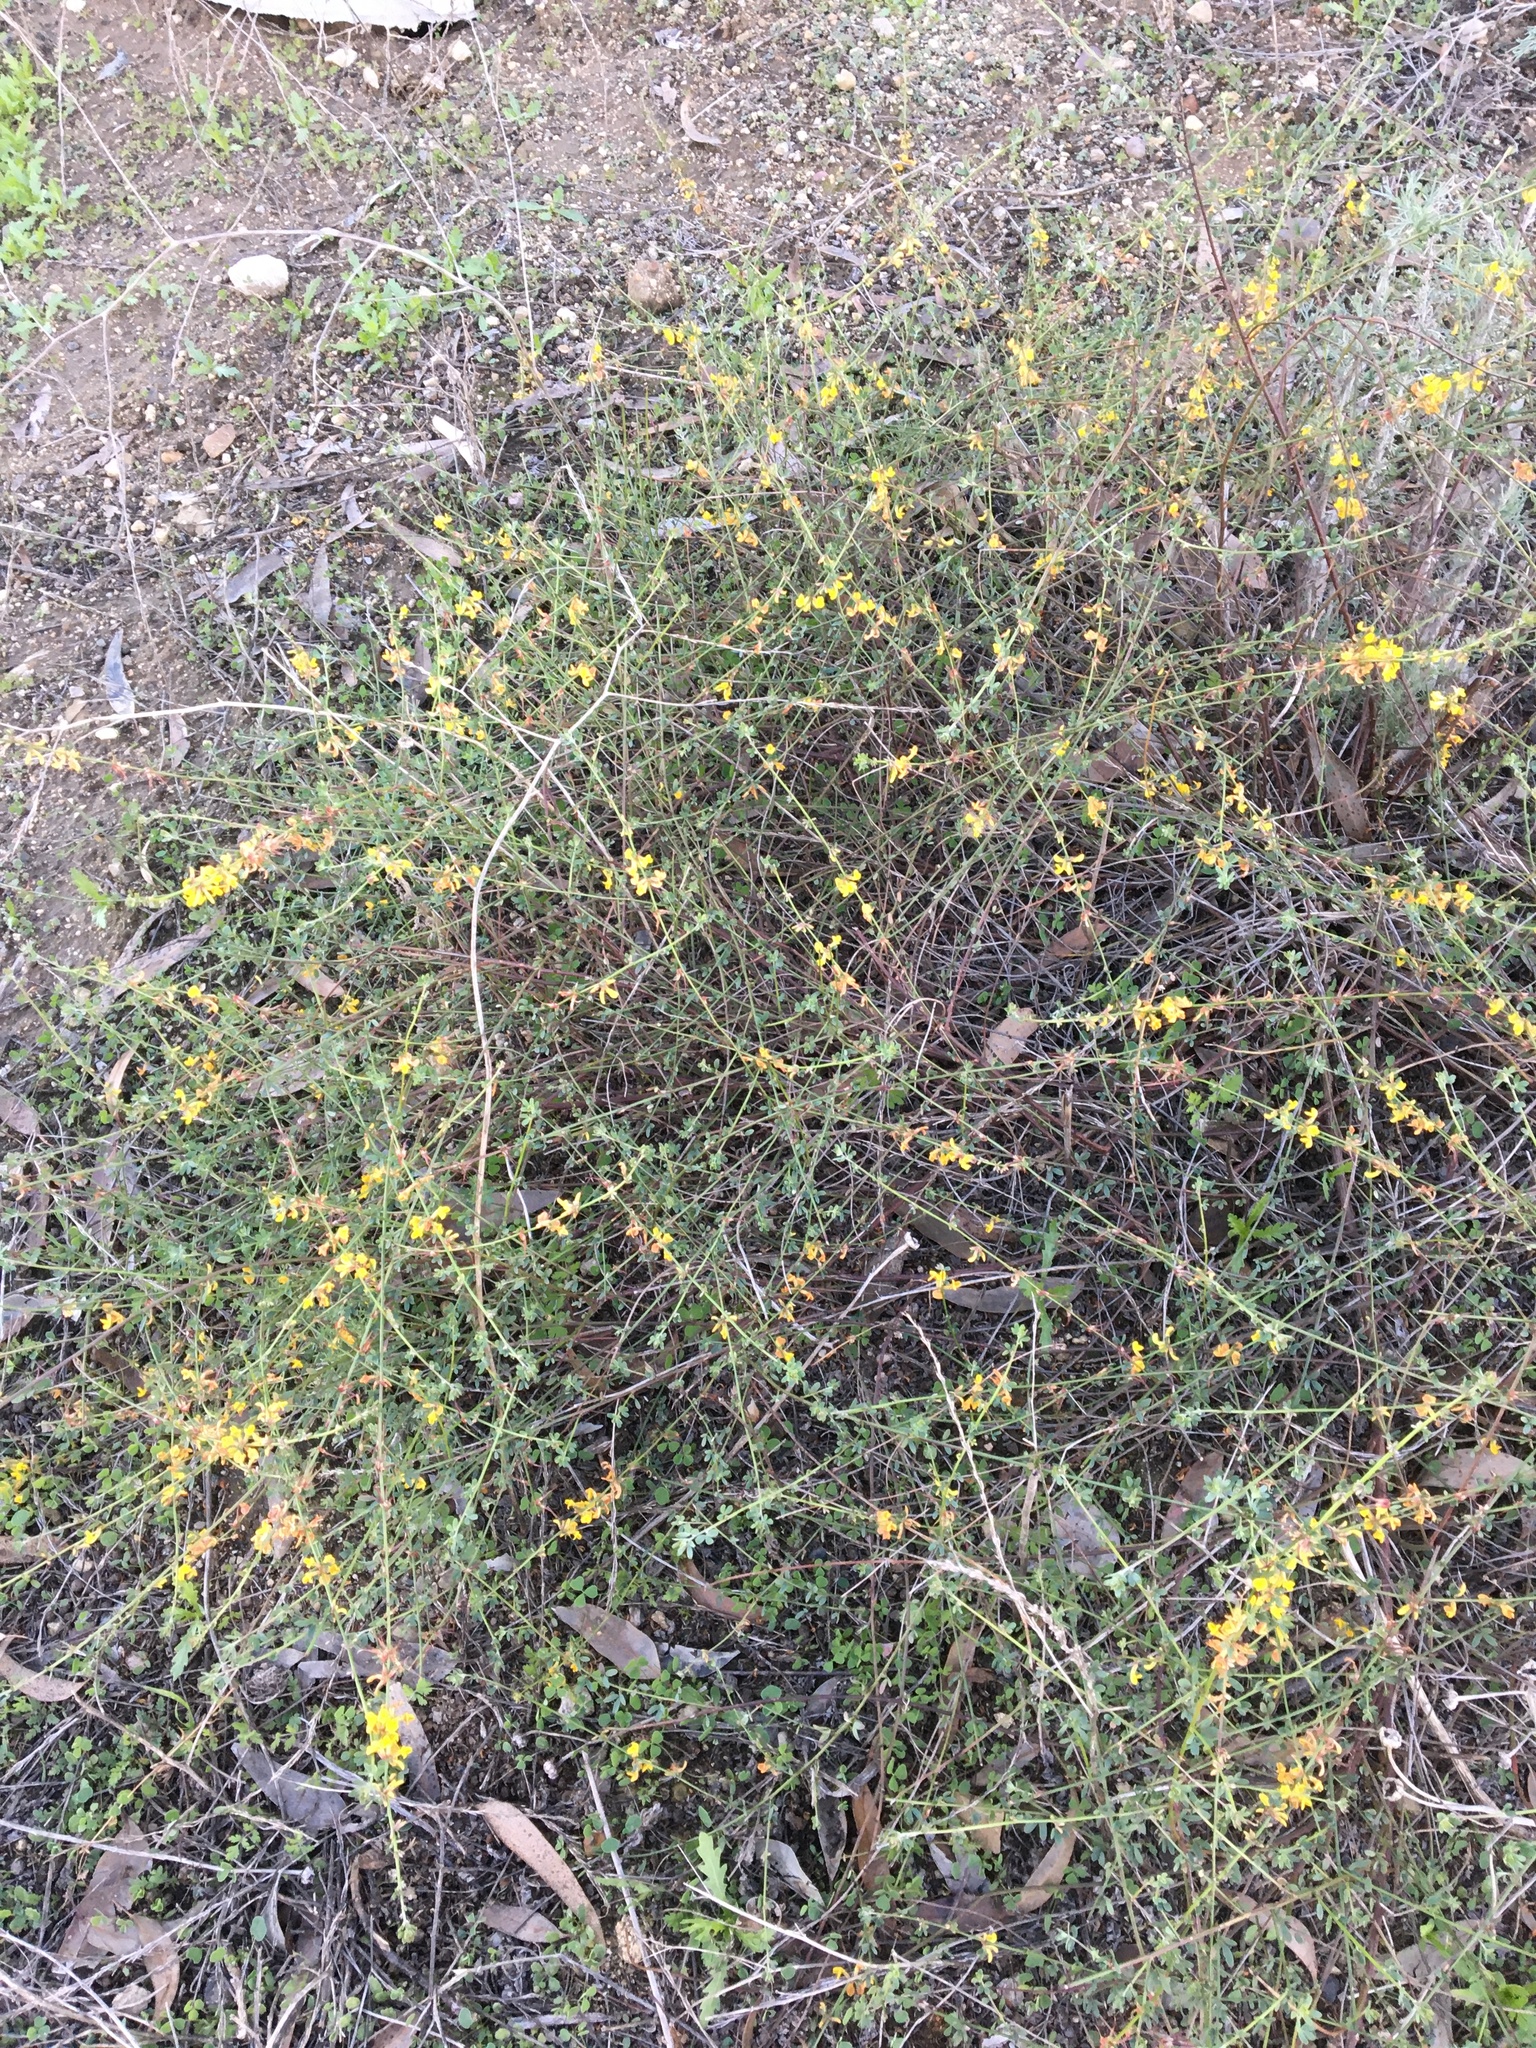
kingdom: Plantae
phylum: Tracheophyta
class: Magnoliopsida
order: Fabales
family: Fabaceae
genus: Acmispon
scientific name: Acmispon glaber
